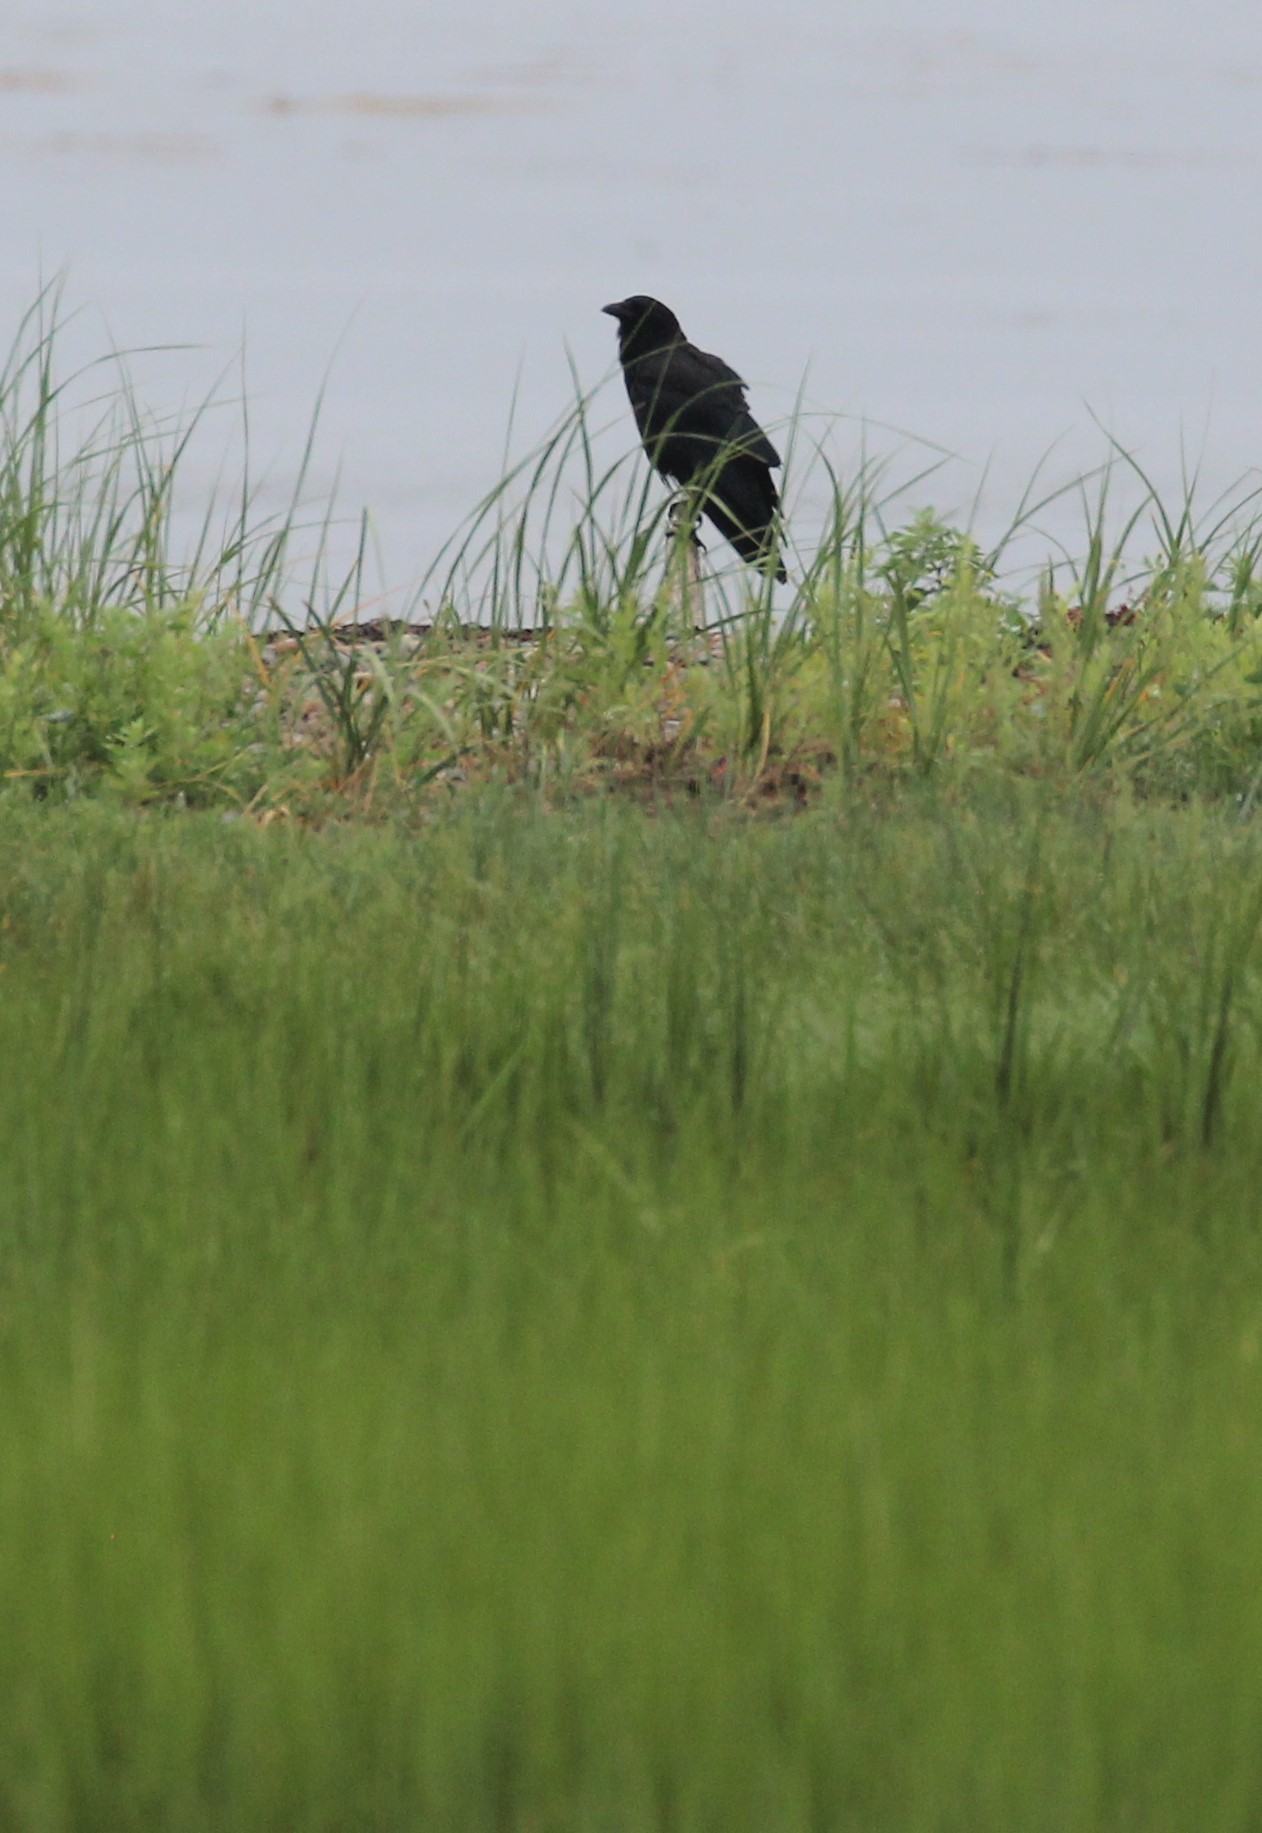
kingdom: Animalia
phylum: Chordata
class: Aves
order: Passeriformes
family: Corvidae
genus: Corvus
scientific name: Corvus brachyrhynchos
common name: American crow
